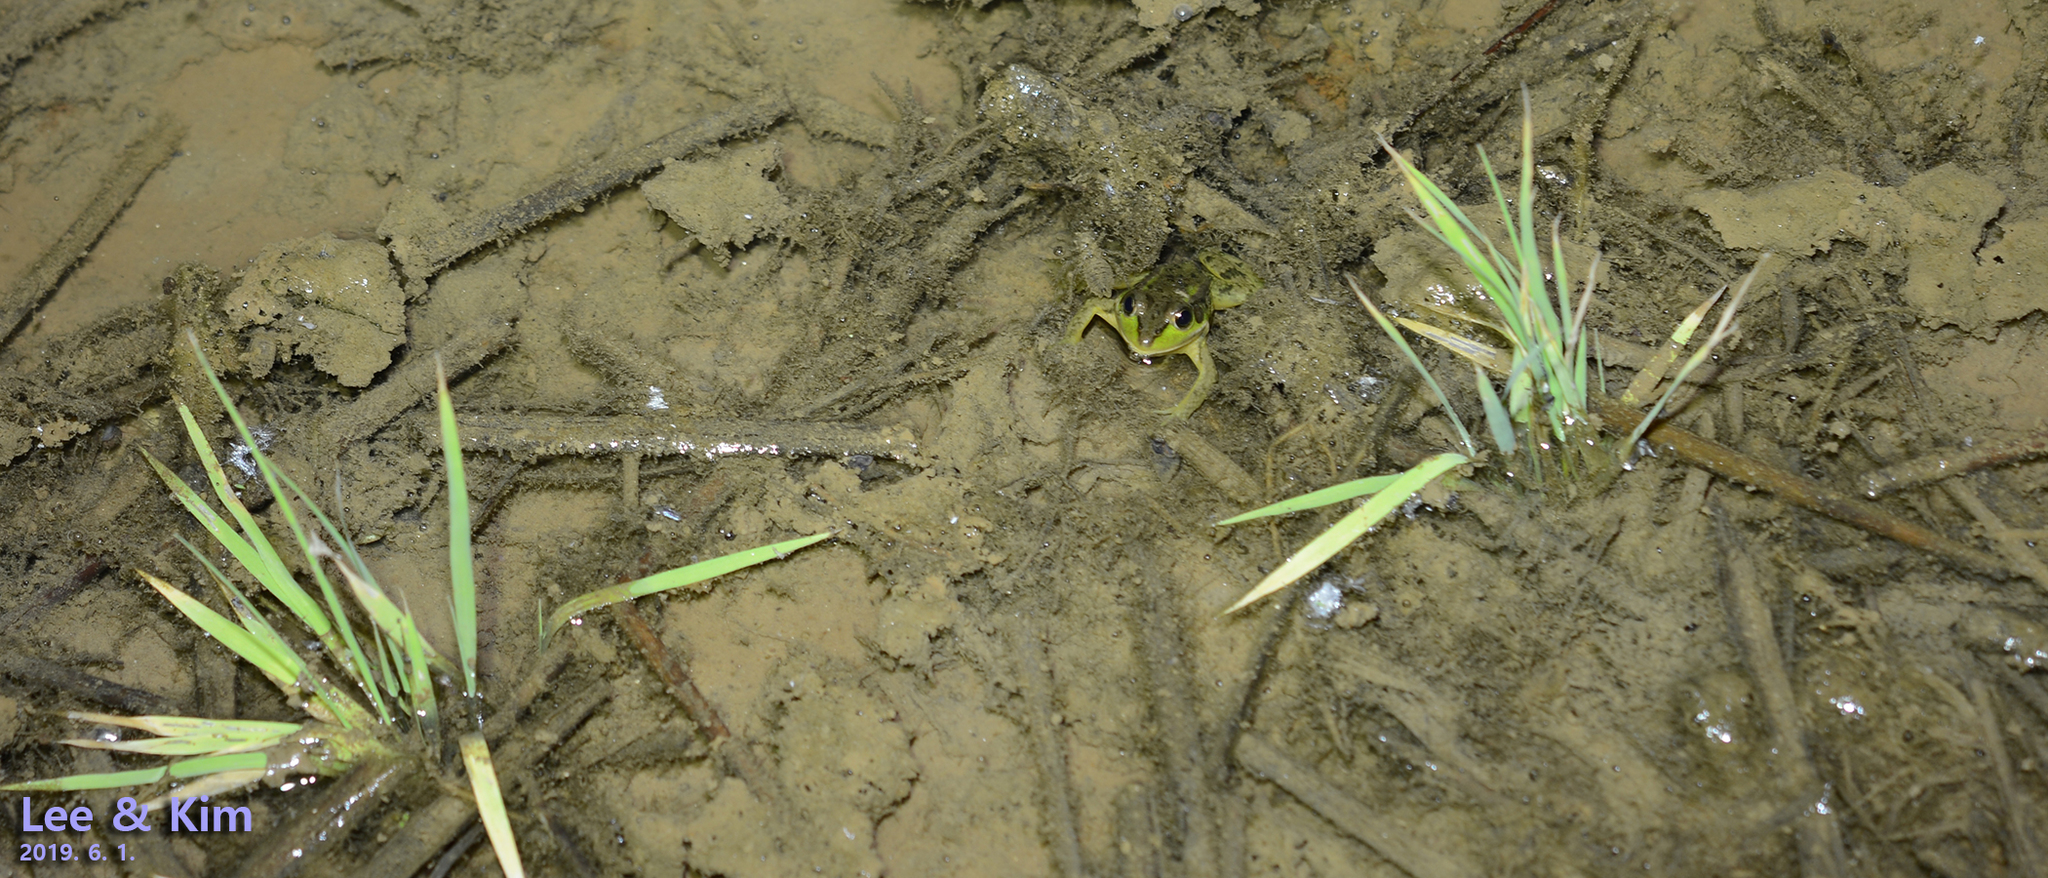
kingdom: Animalia
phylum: Chordata
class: Amphibia
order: Anura
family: Ranidae
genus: Pelophylax
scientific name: Pelophylax chosenicus
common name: Gold-spotted pond frog
